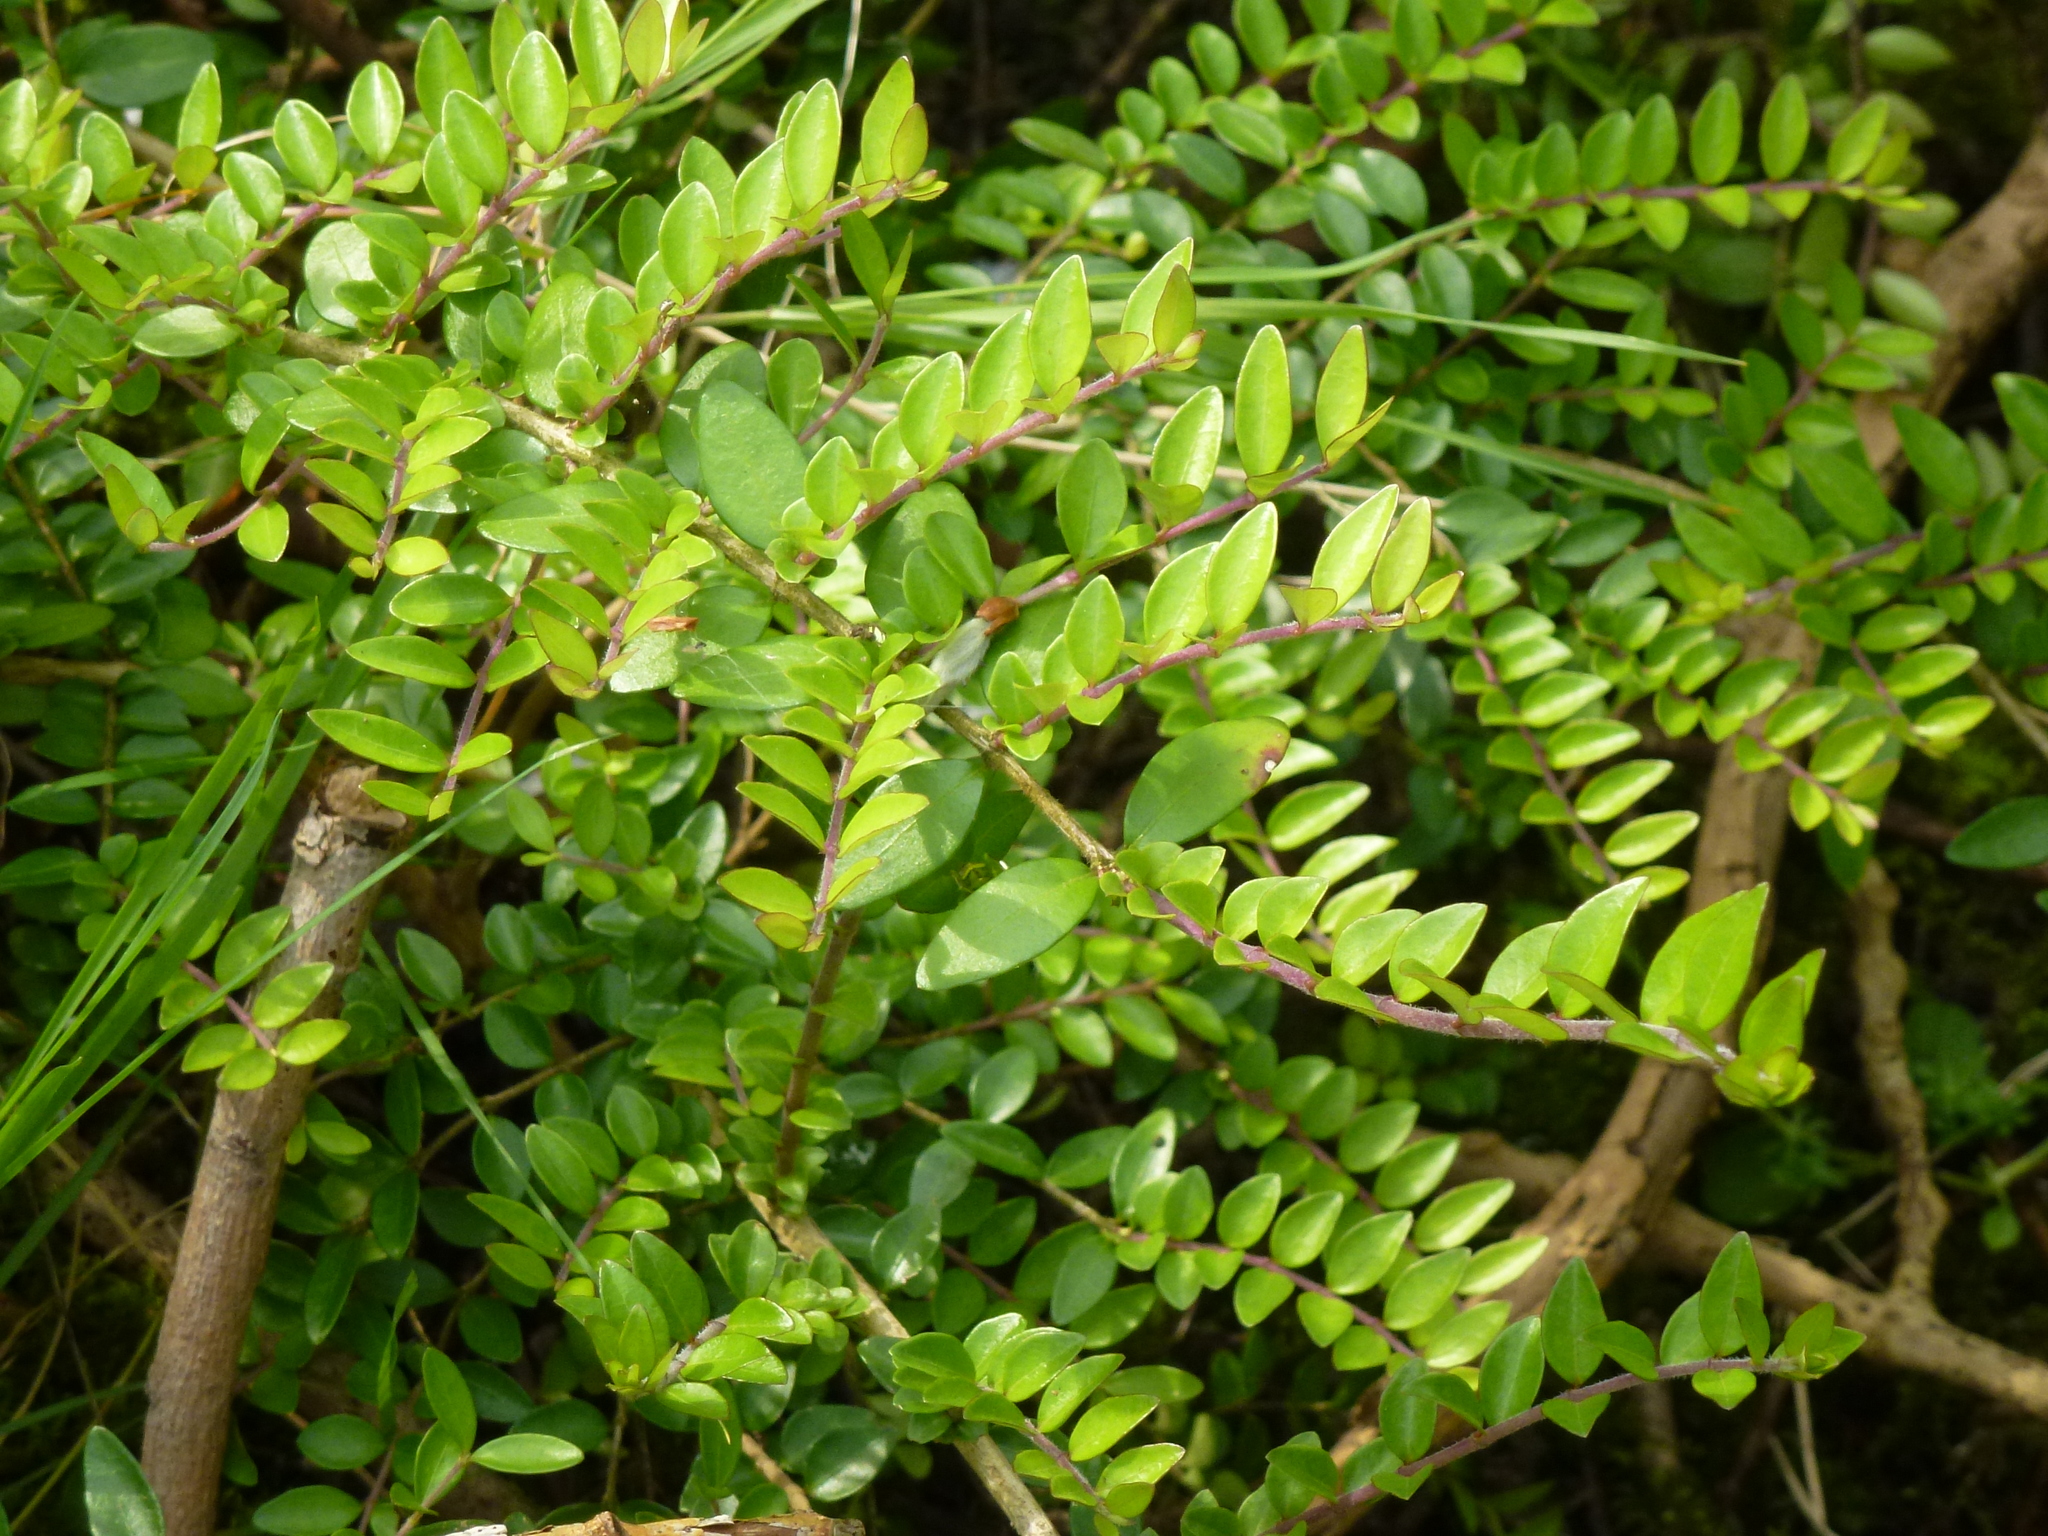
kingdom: Plantae
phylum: Tracheophyta
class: Magnoliopsida
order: Dipsacales
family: Caprifoliaceae
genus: Lonicera
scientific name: Lonicera pileata
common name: Box-leaved honeysuckle
